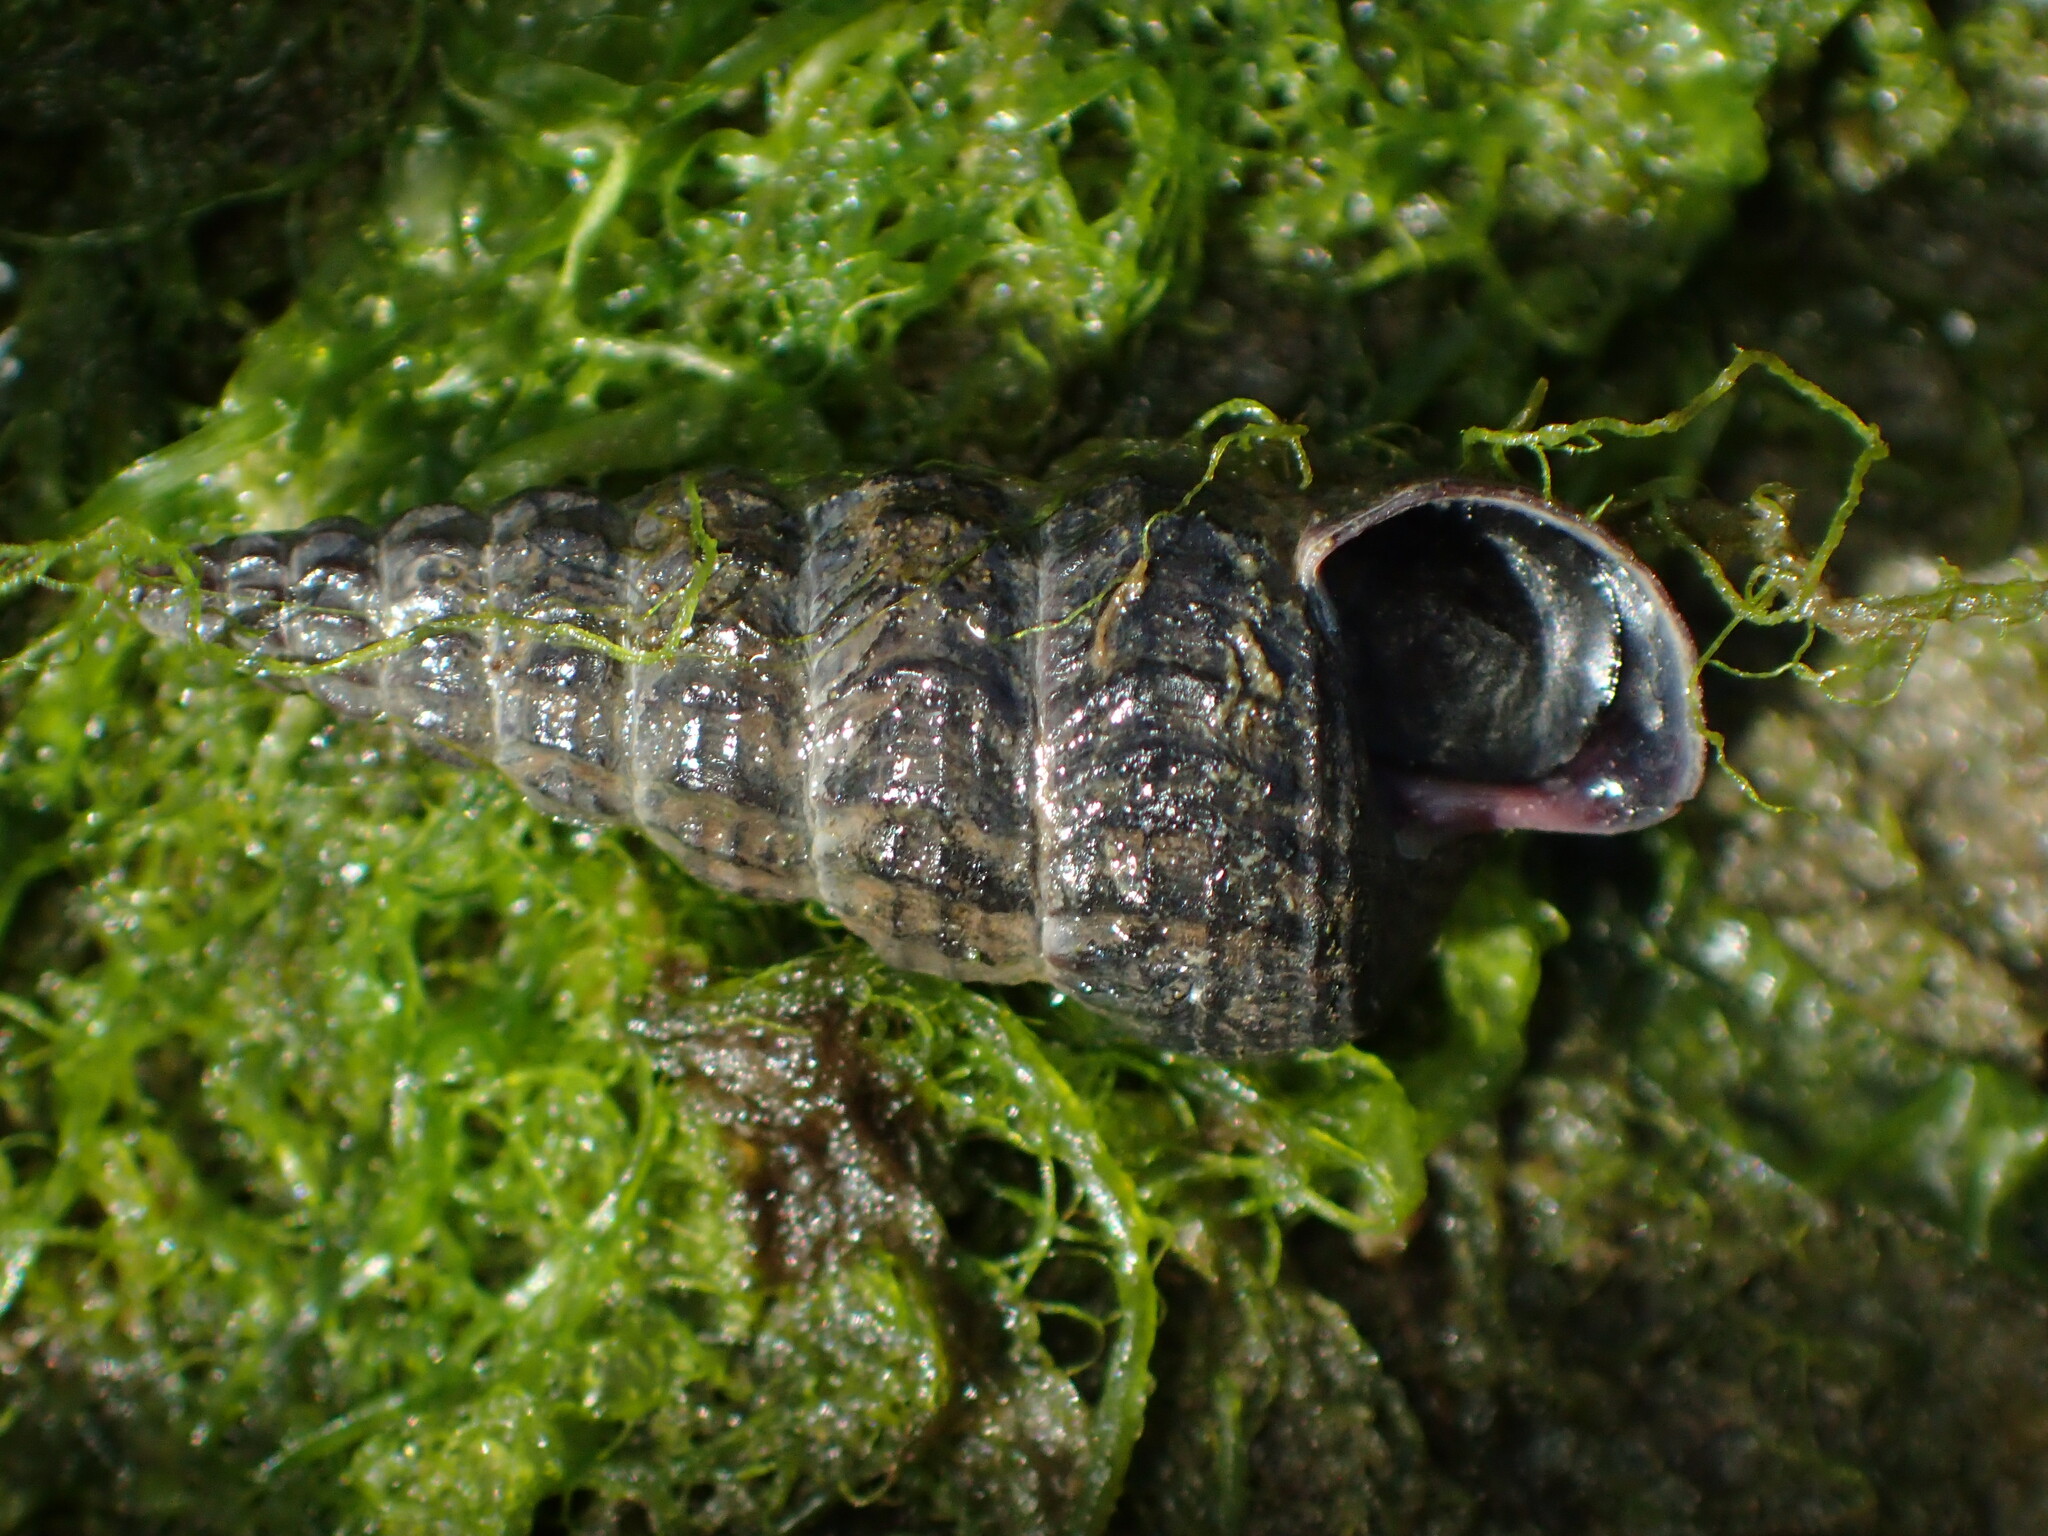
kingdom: Animalia
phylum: Mollusca
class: Gastropoda
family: Potamididae
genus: Cerithideopsis
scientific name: Cerithideopsis californica
